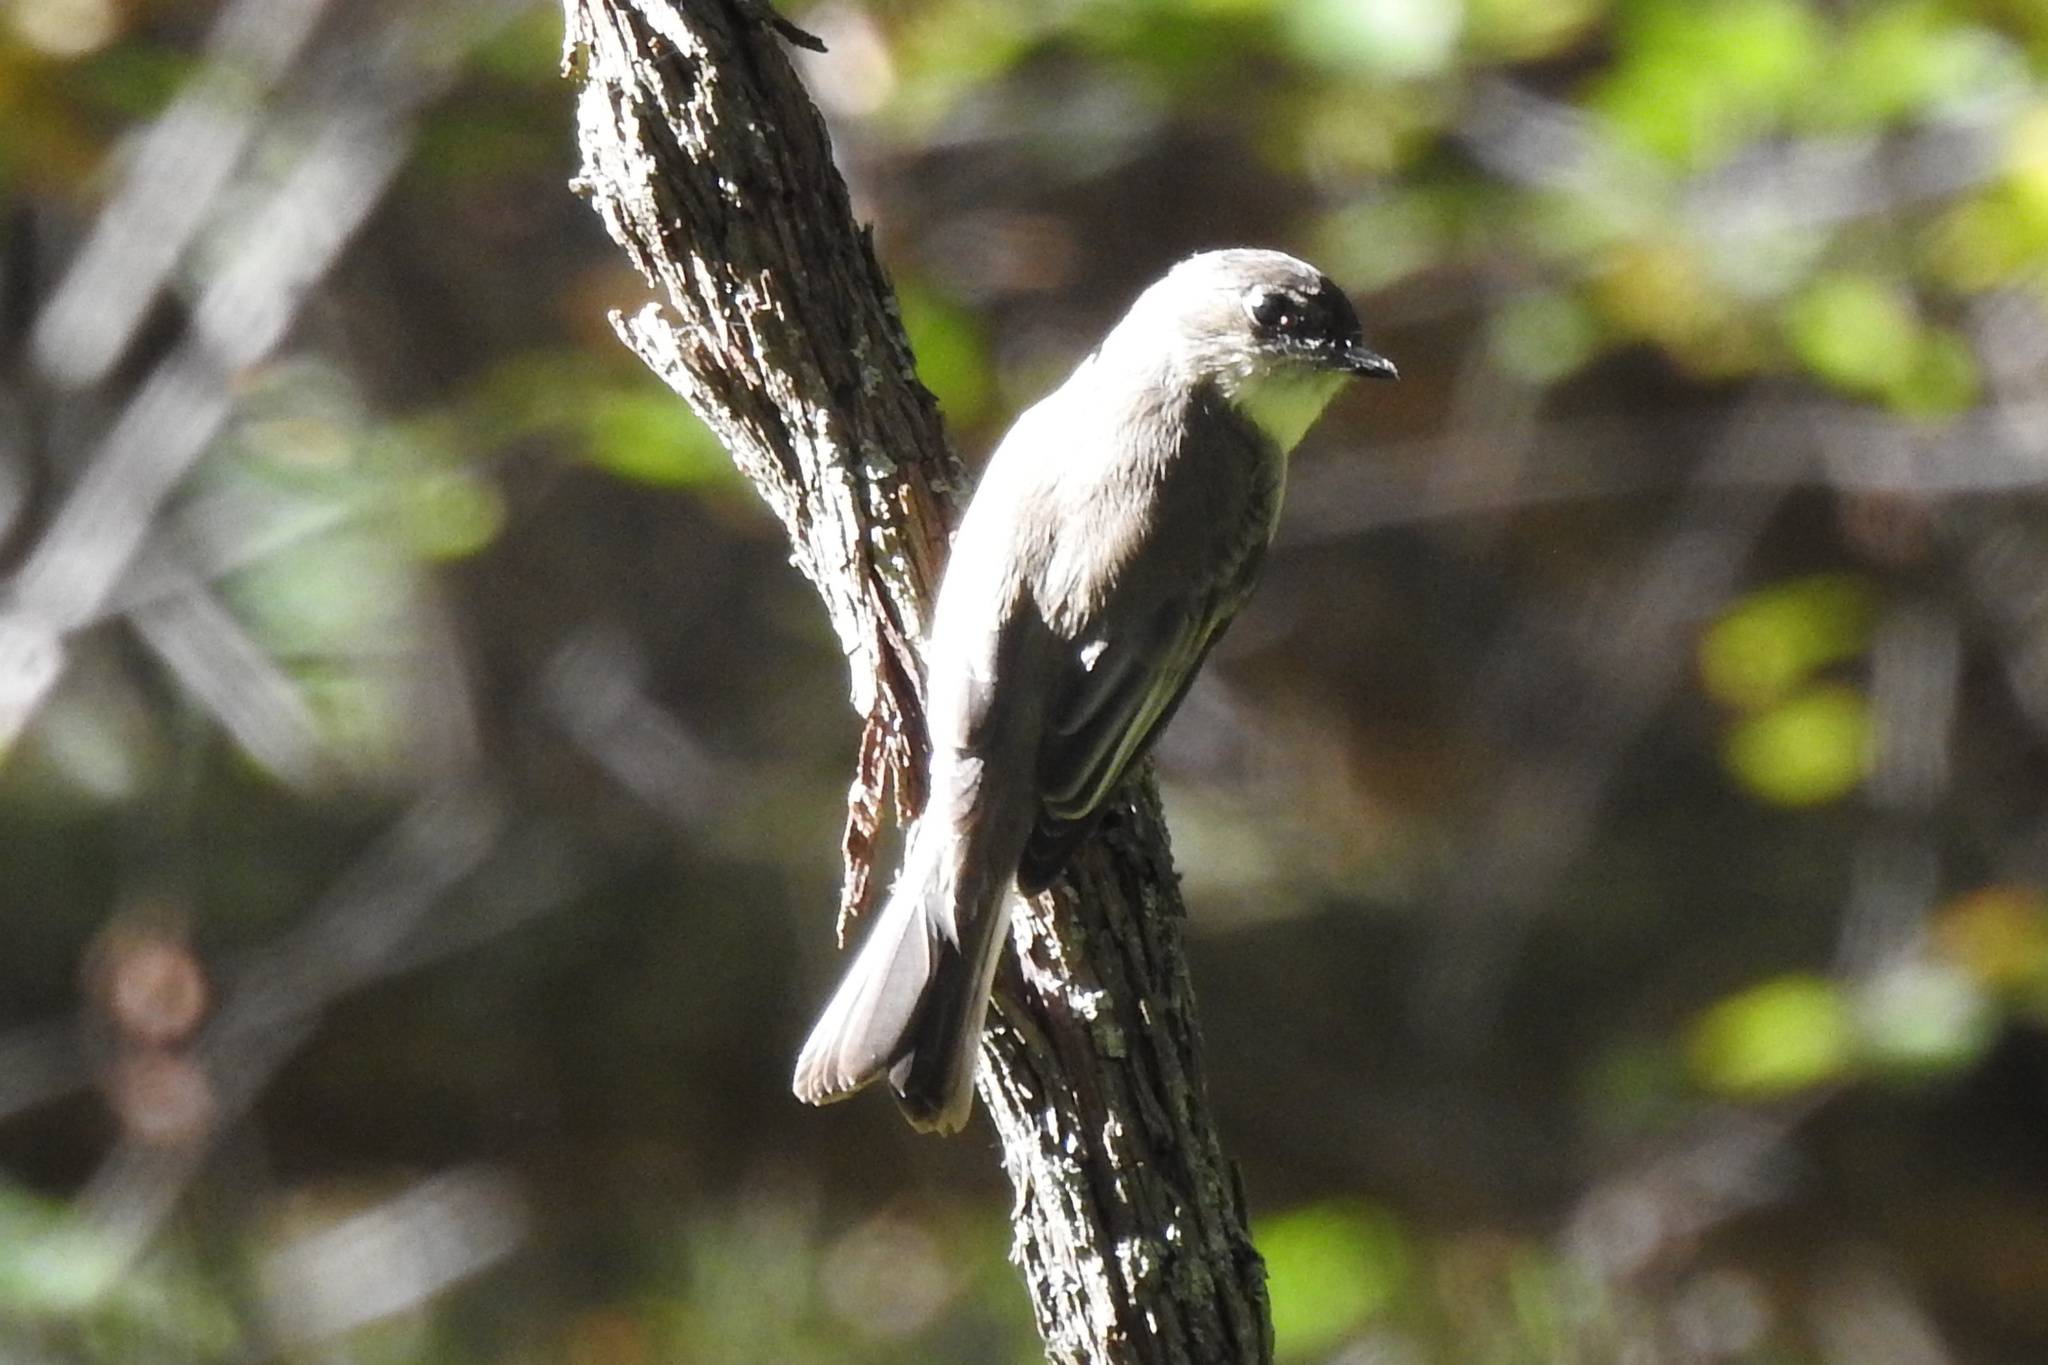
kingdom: Animalia
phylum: Chordata
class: Aves
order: Passeriformes
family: Tyrannidae
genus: Sayornis
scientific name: Sayornis phoebe
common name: Eastern phoebe
